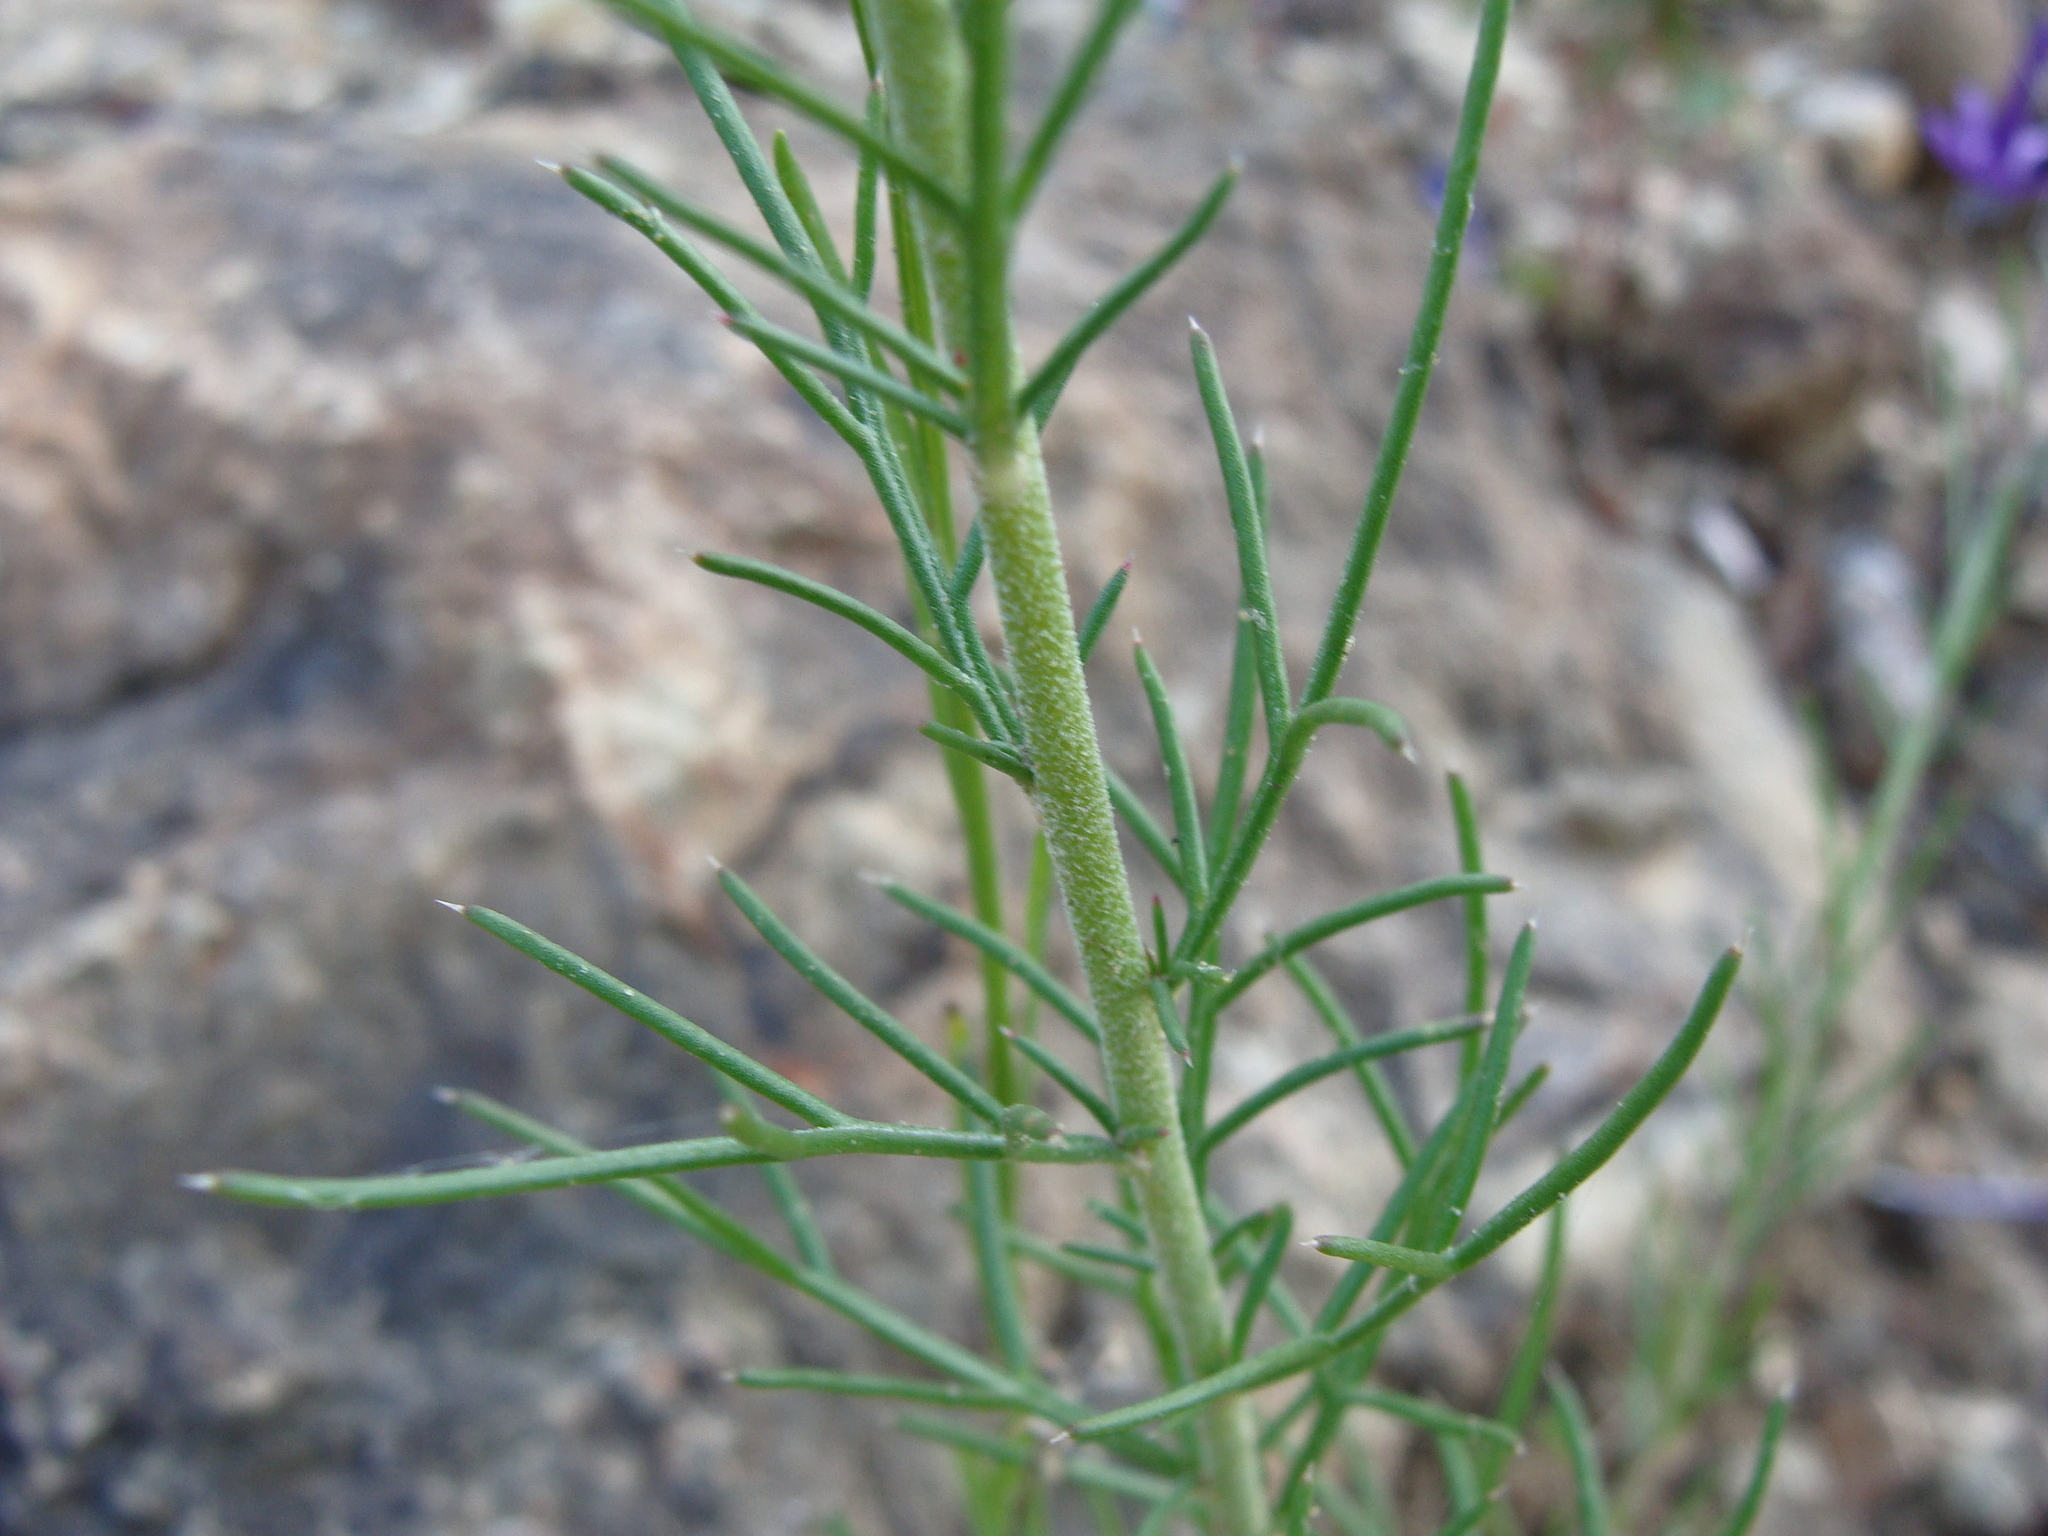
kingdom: Plantae
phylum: Tracheophyta
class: Magnoliopsida
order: Ericales
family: Polemoniaceae
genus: Ipomopsis
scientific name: Ipomopsis thurberi
